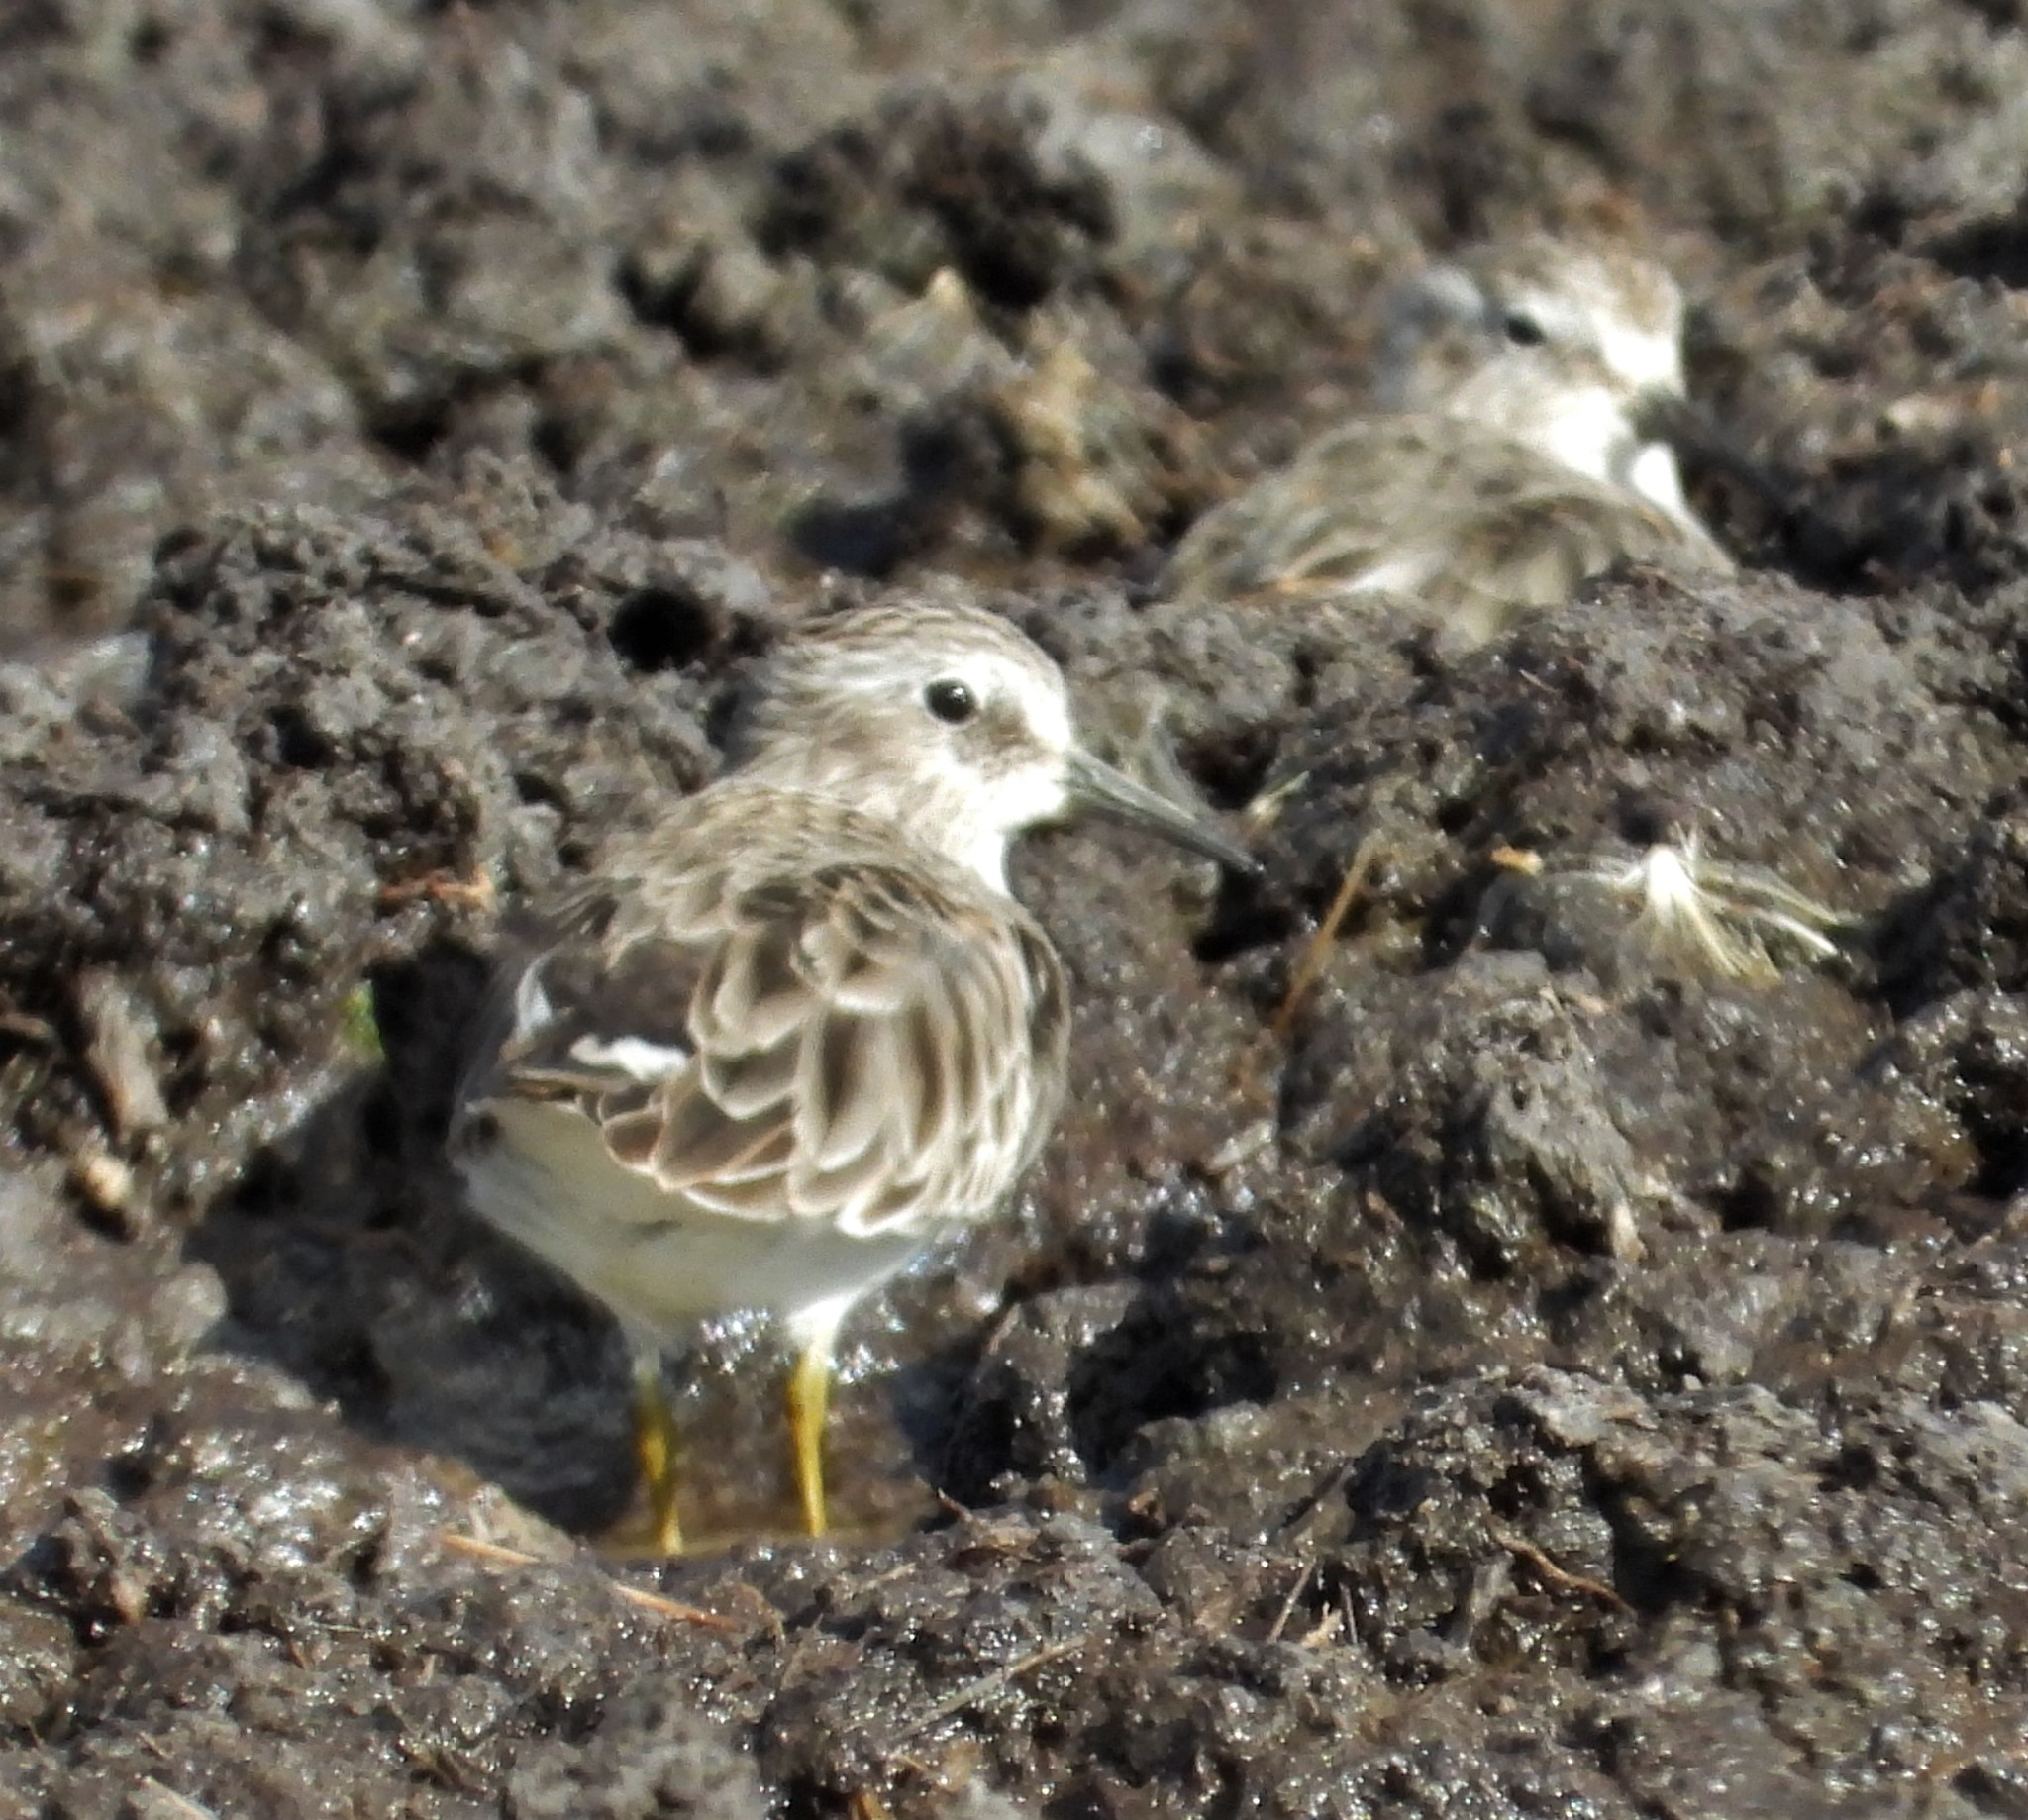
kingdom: Animalia
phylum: Chordata
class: Aves
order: Charadriiformes
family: Scolopacidae
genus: Calidris
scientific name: Calidris minutilla
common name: Least sandpiper
